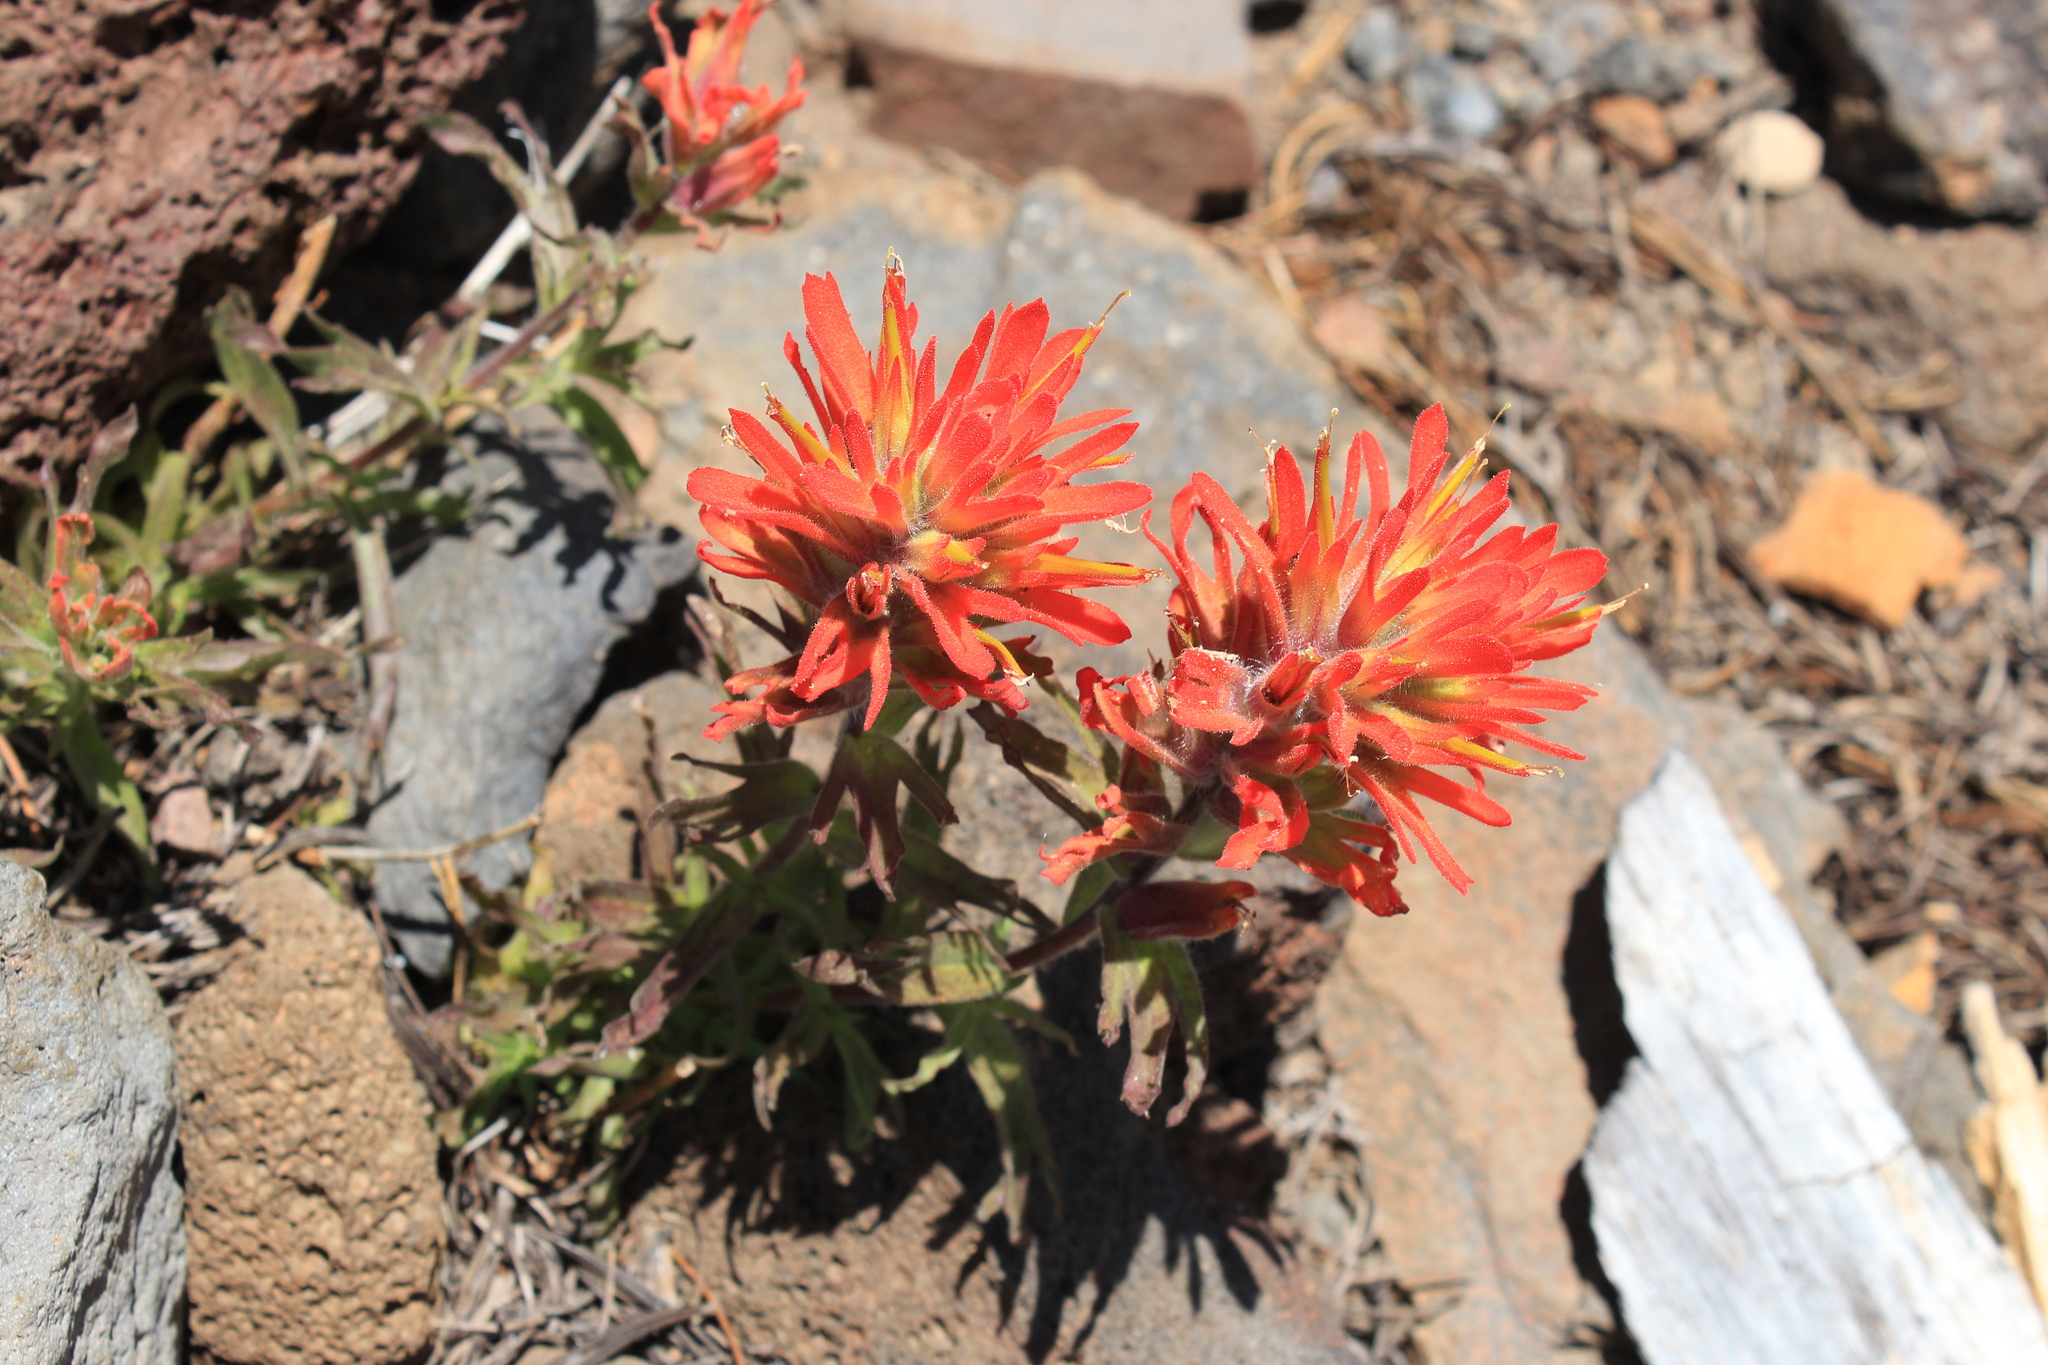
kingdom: Plantae
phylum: Tracheophyta
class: Magnoliopsida
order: Lamiales
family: Orobanchaceae
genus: Castilleja
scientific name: Castilleja applegatei
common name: Wavy-leaf paintbrush
